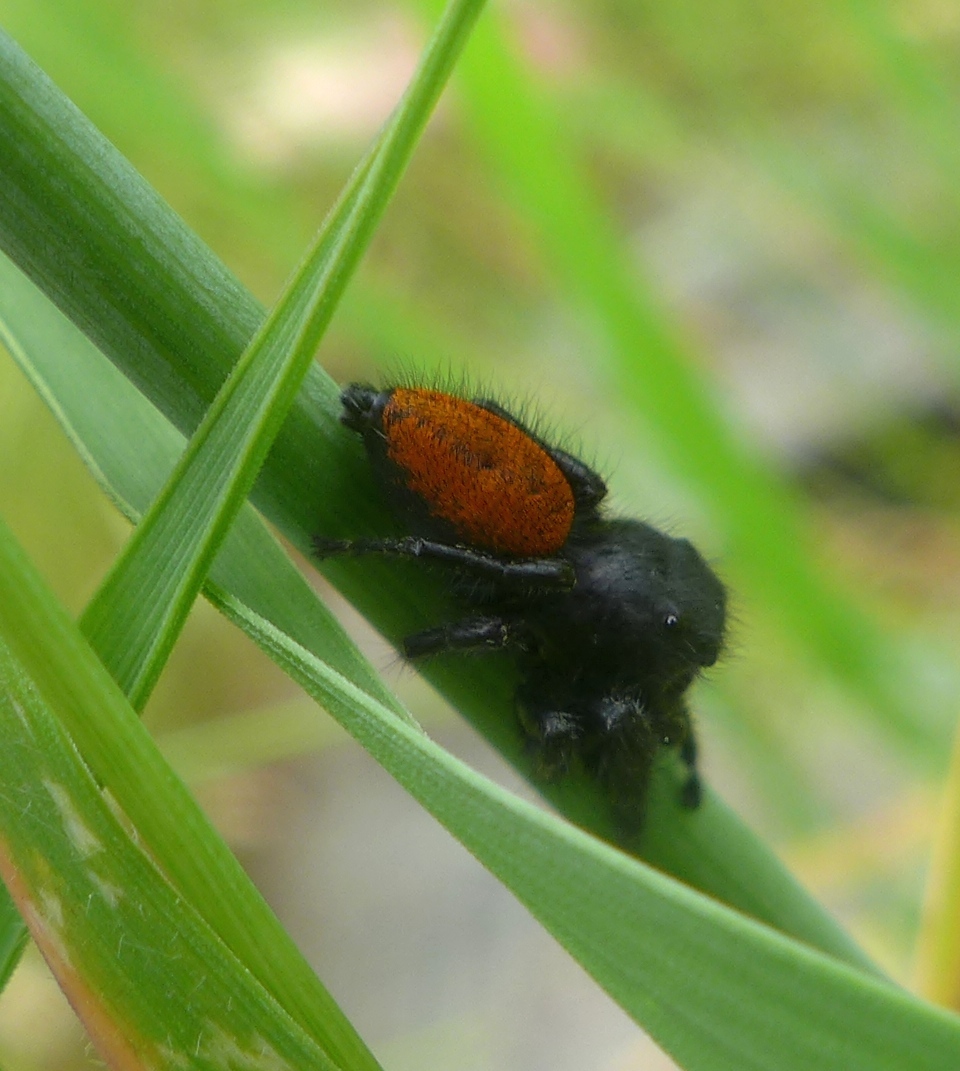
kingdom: Animalia
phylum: Arthropoda
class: Arachnida
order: Araneae
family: Salticidae
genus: Phidippus
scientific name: Phidippus johnsoni
